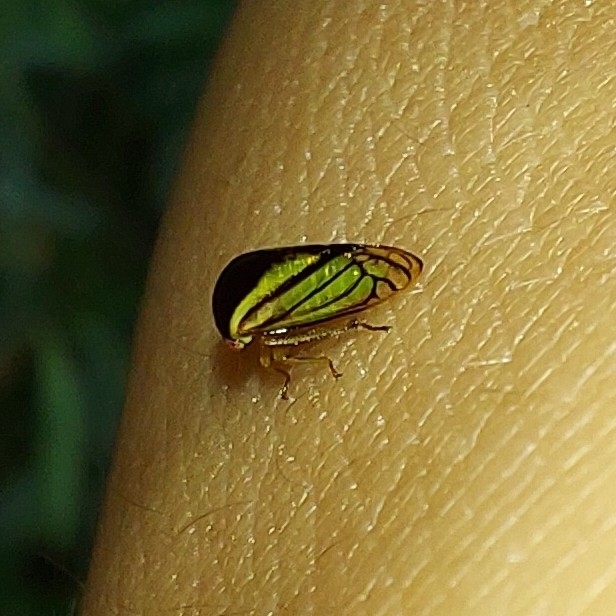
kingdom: Animalia
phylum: Arthropoda
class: Insecta
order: Hemiptera
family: Membracidae
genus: Acutalis
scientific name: Acutalis tartarea
